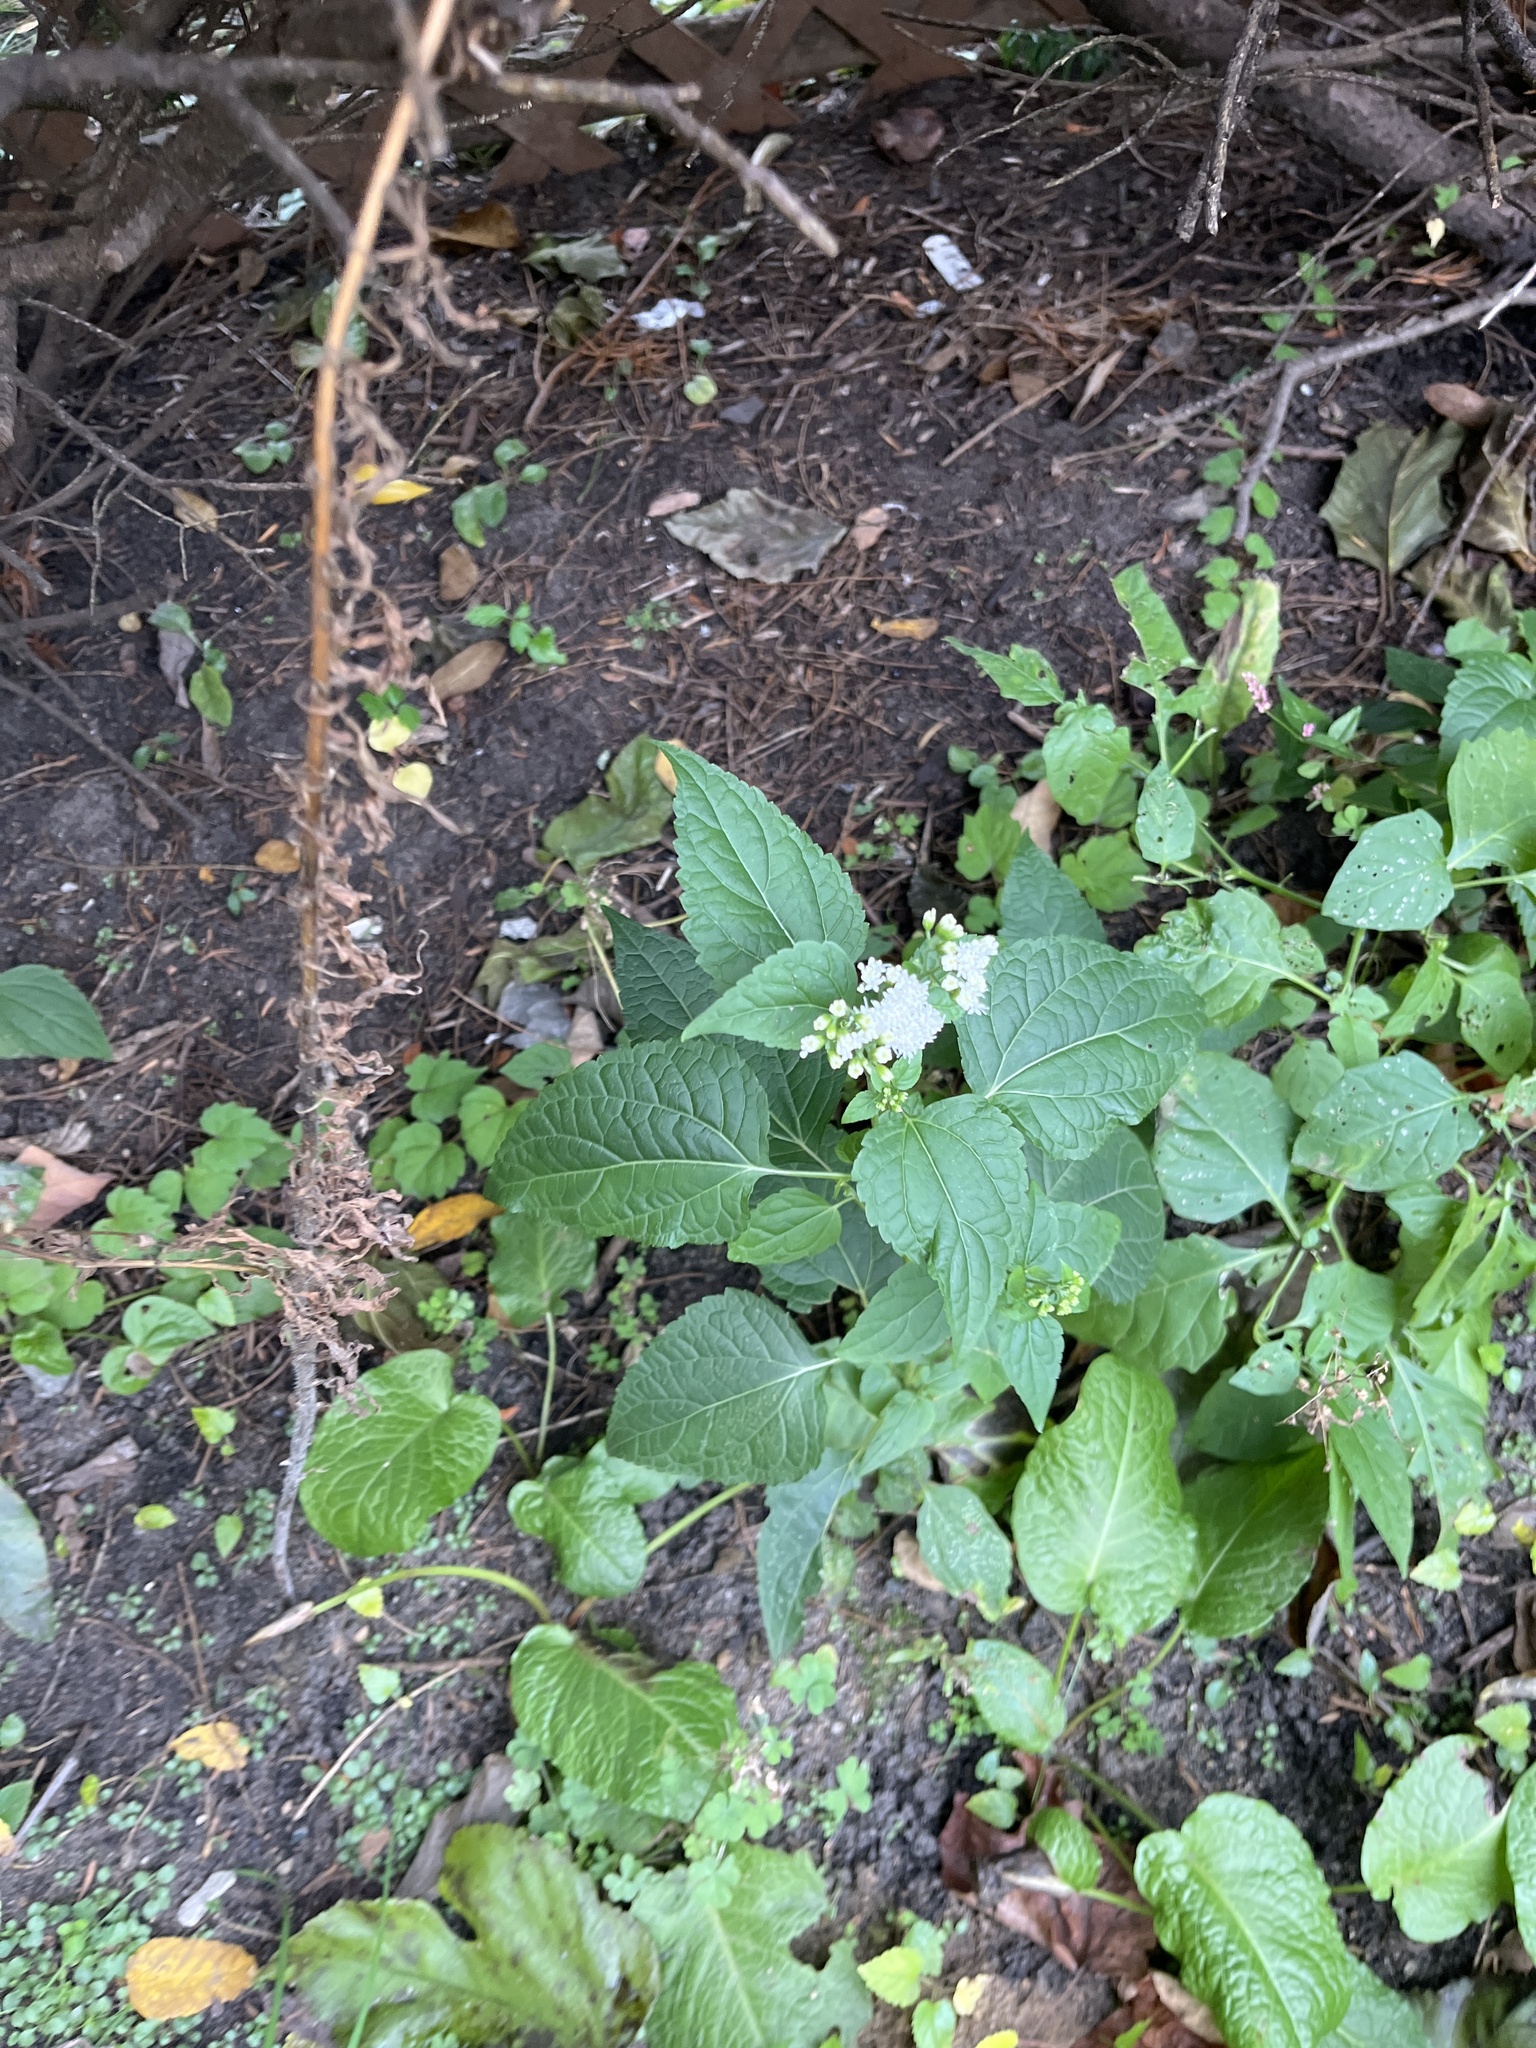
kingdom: Plantae
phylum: Tracheophyta
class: Magnoliopsida
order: Asterales
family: Asteraceae
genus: Ageratina
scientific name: Ageratina altissima
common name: White snakeroot
